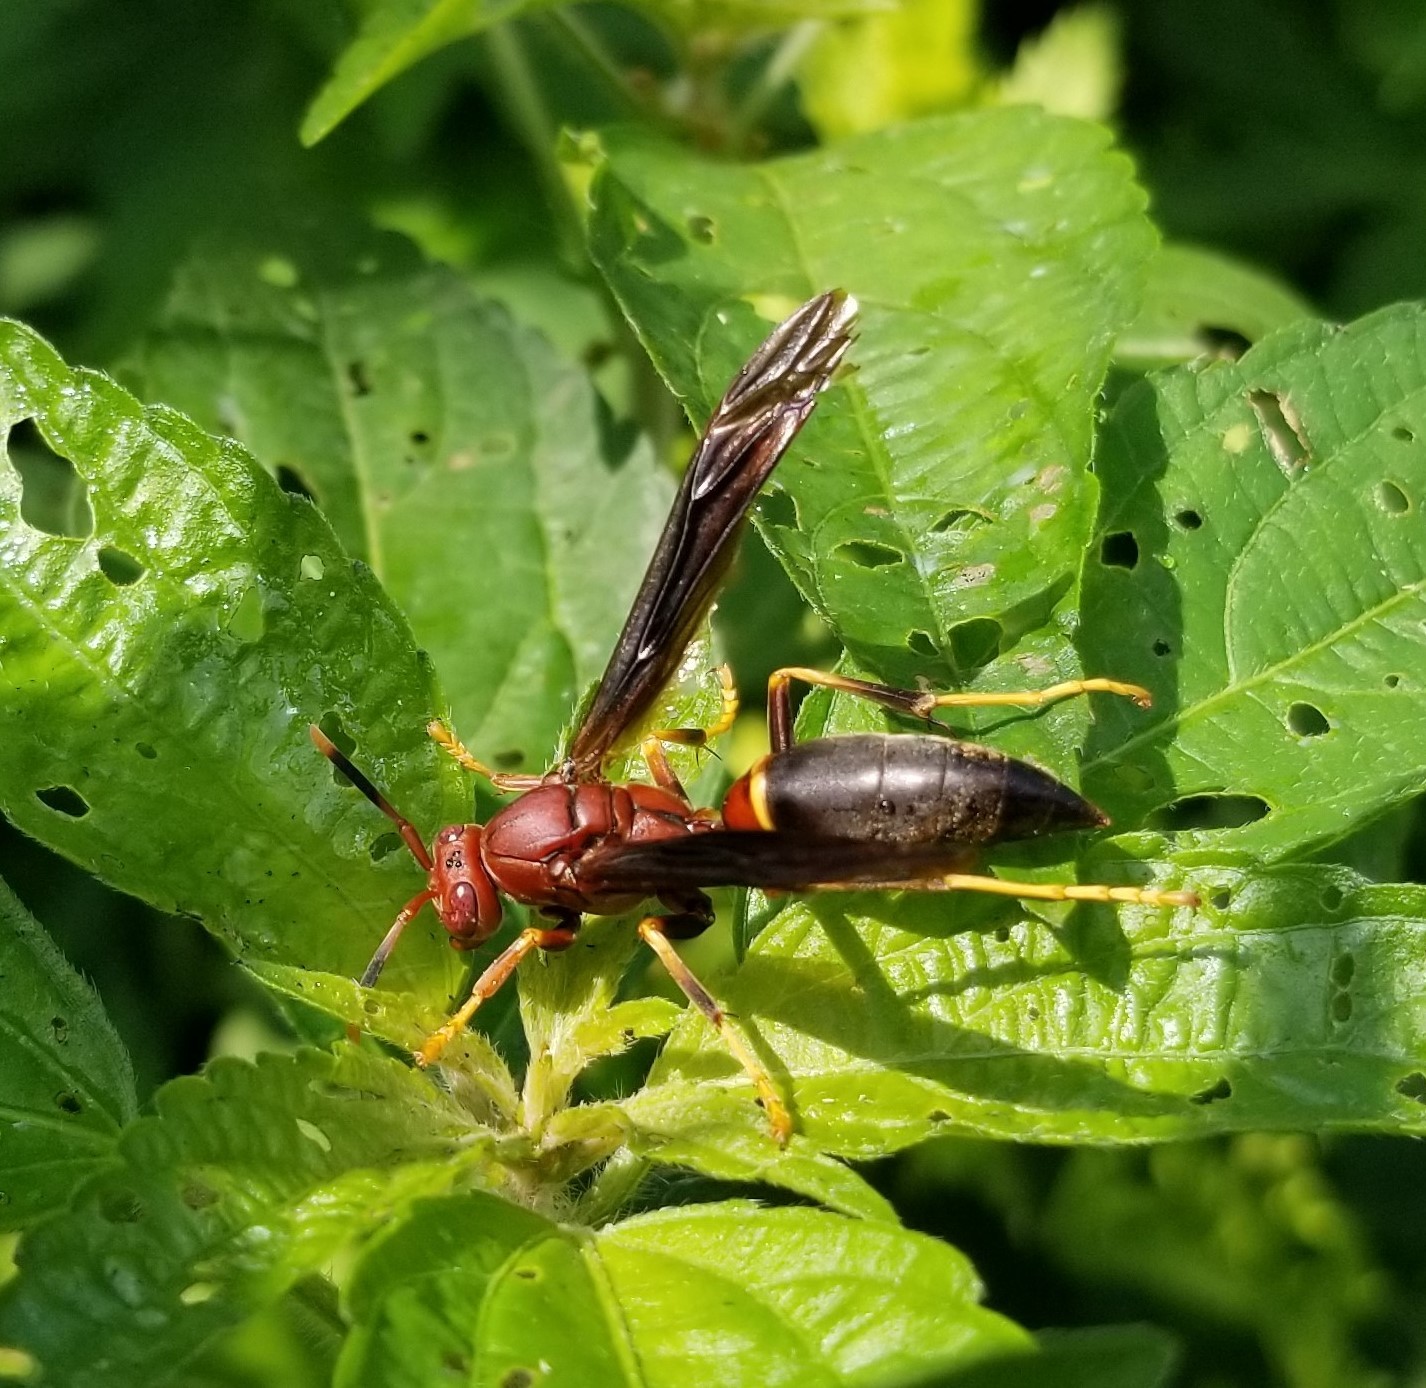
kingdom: Animalia
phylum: Arthropoda
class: Insecta
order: Hymenoptera
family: Eumenidae
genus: Polistes
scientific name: Polistes annularis
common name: Ringed paper wasp
